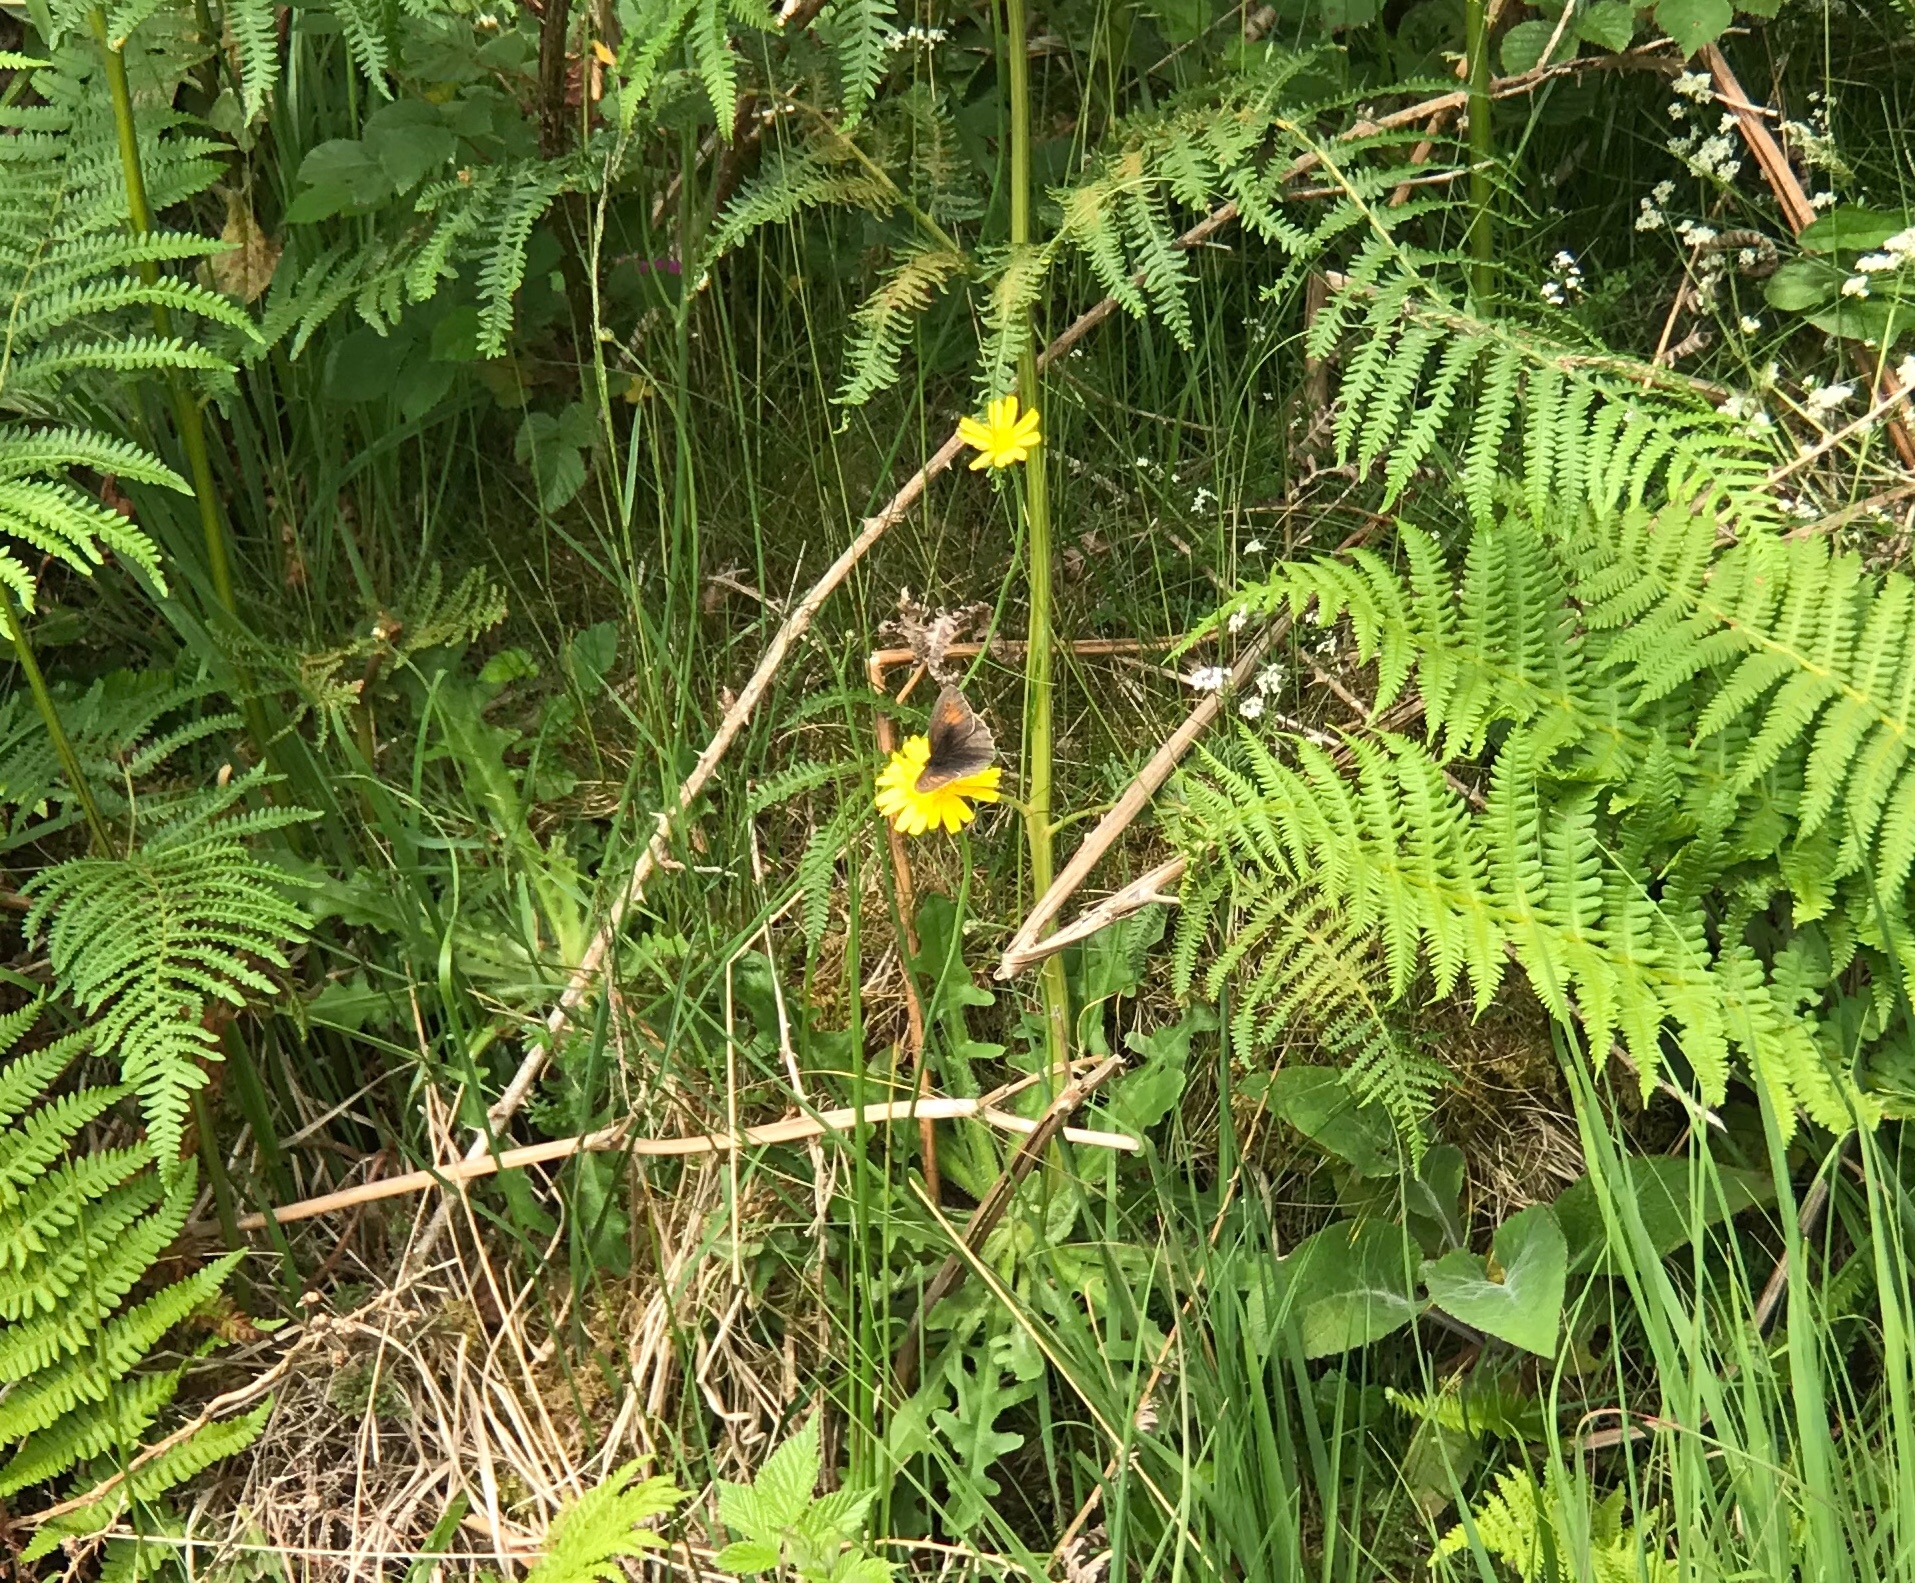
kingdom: Animalia
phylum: Arthropoda
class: Insecta
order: Lepidoptera
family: Nymphalidae
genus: Maniola
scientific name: Maniola jurtina
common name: Meadow brown
